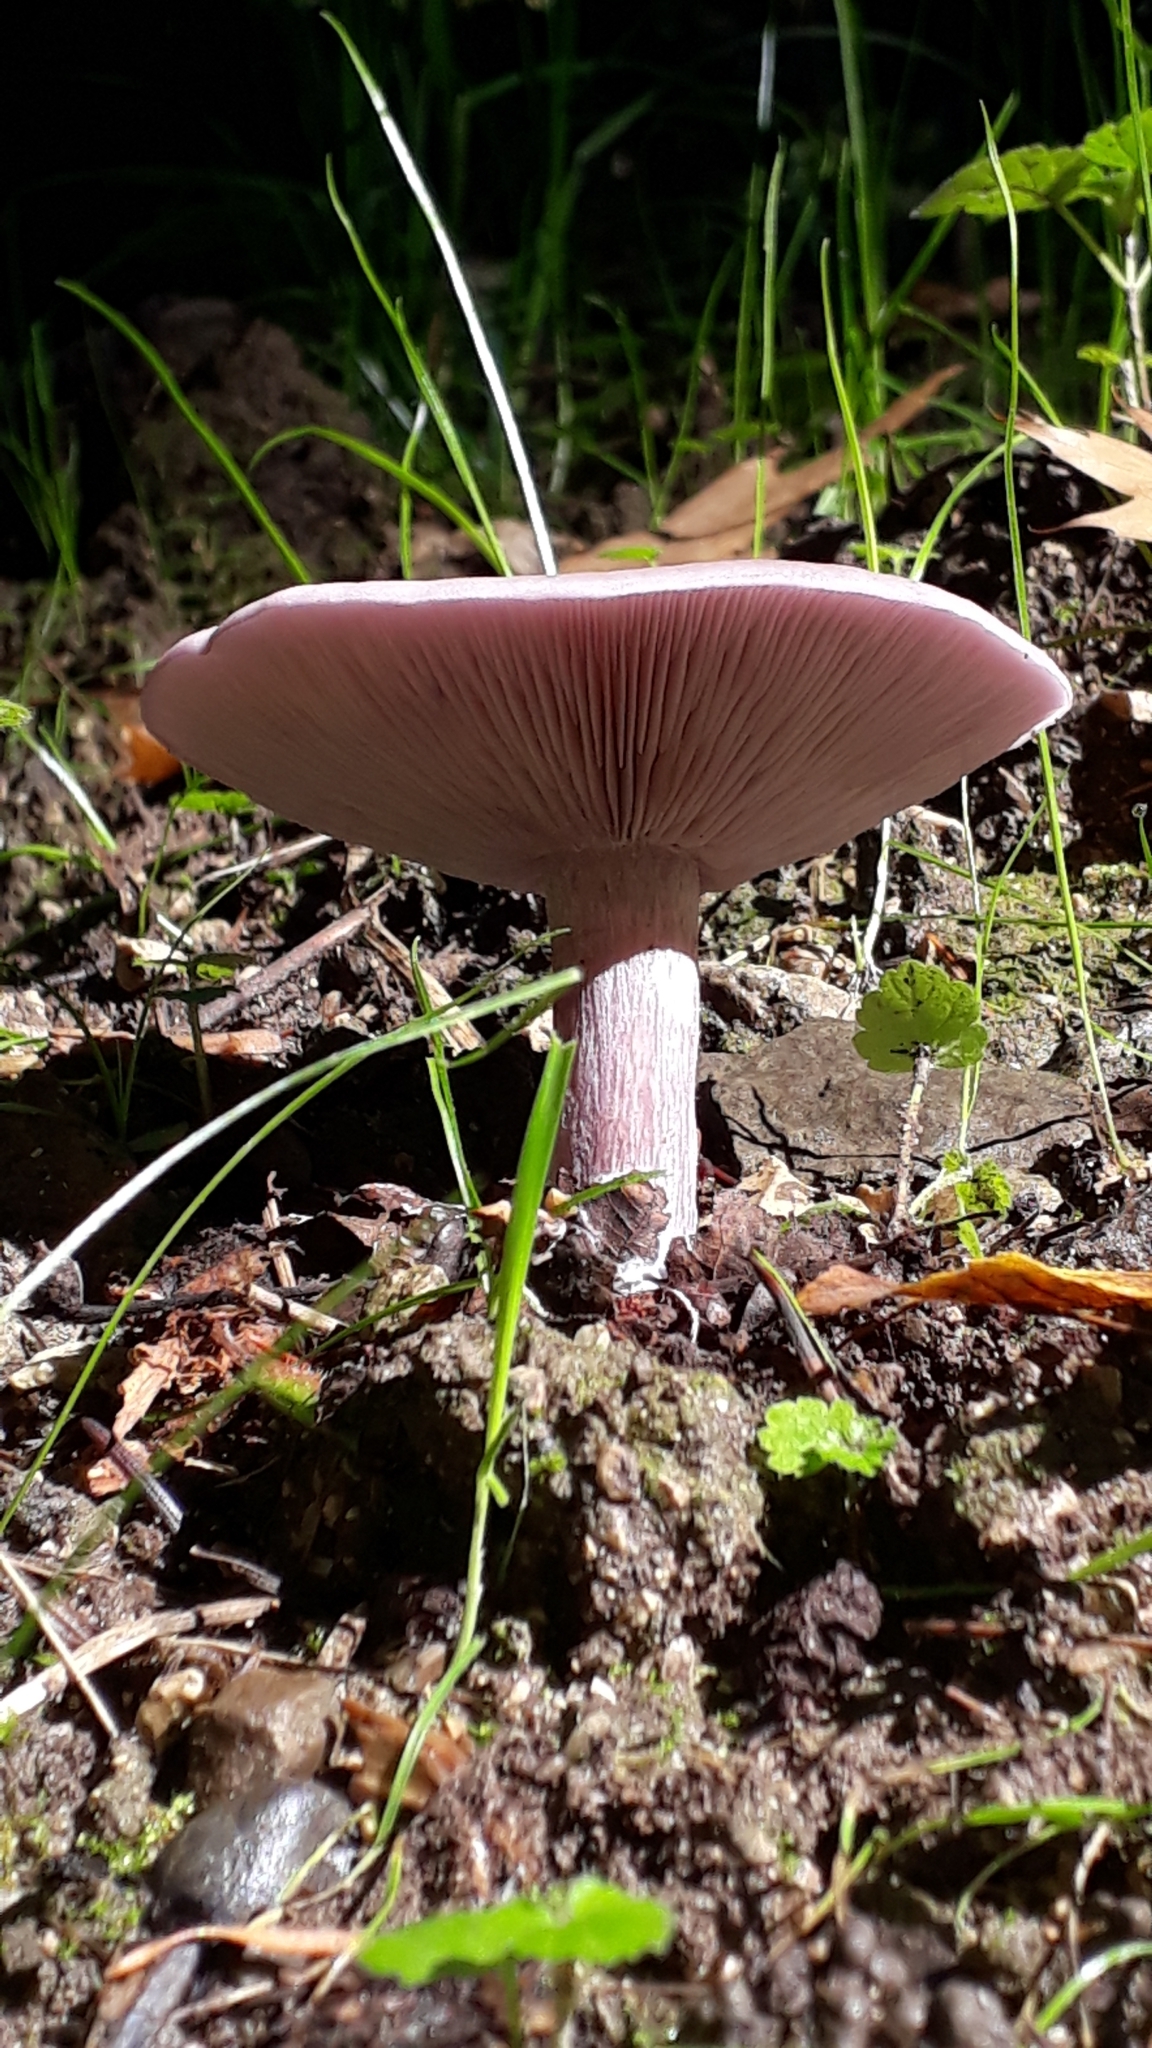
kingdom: Fungi
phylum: Basidiomycota
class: Agaricomycetes
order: Agaricales
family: Tricholomataceae
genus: Collybia
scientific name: Collybia
